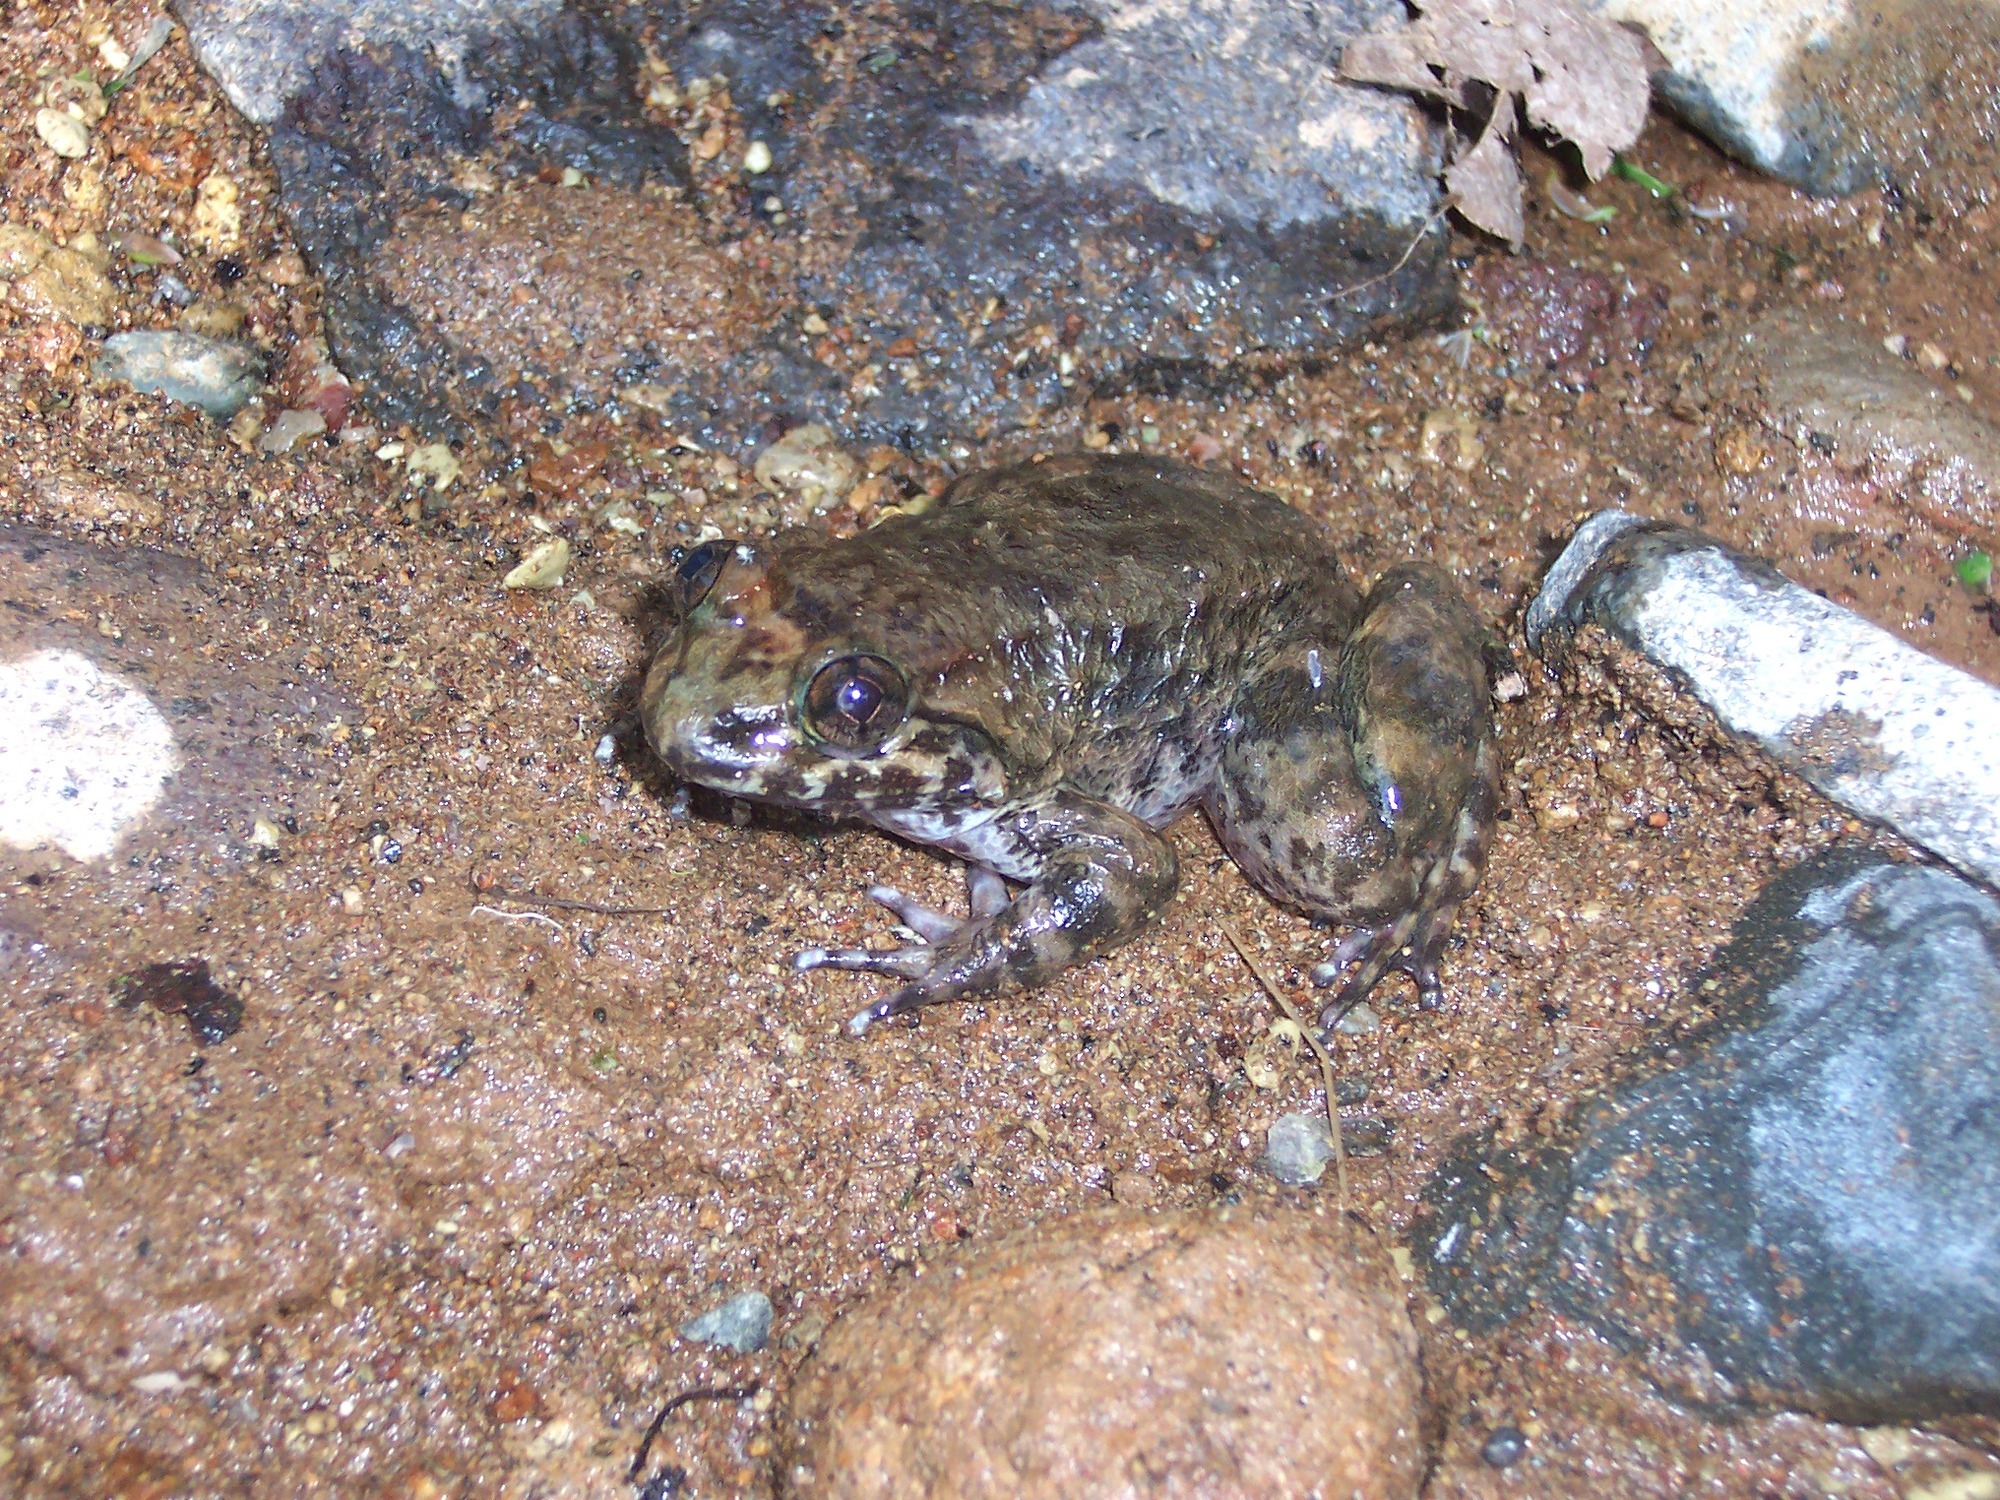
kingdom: Animalia
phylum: Chordata
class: Amphibia
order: Anura
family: Dicroglossidae
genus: Limnonectes
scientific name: Limnonectes kuhlii
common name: Kuhl’s stream frog/large-headed frog
